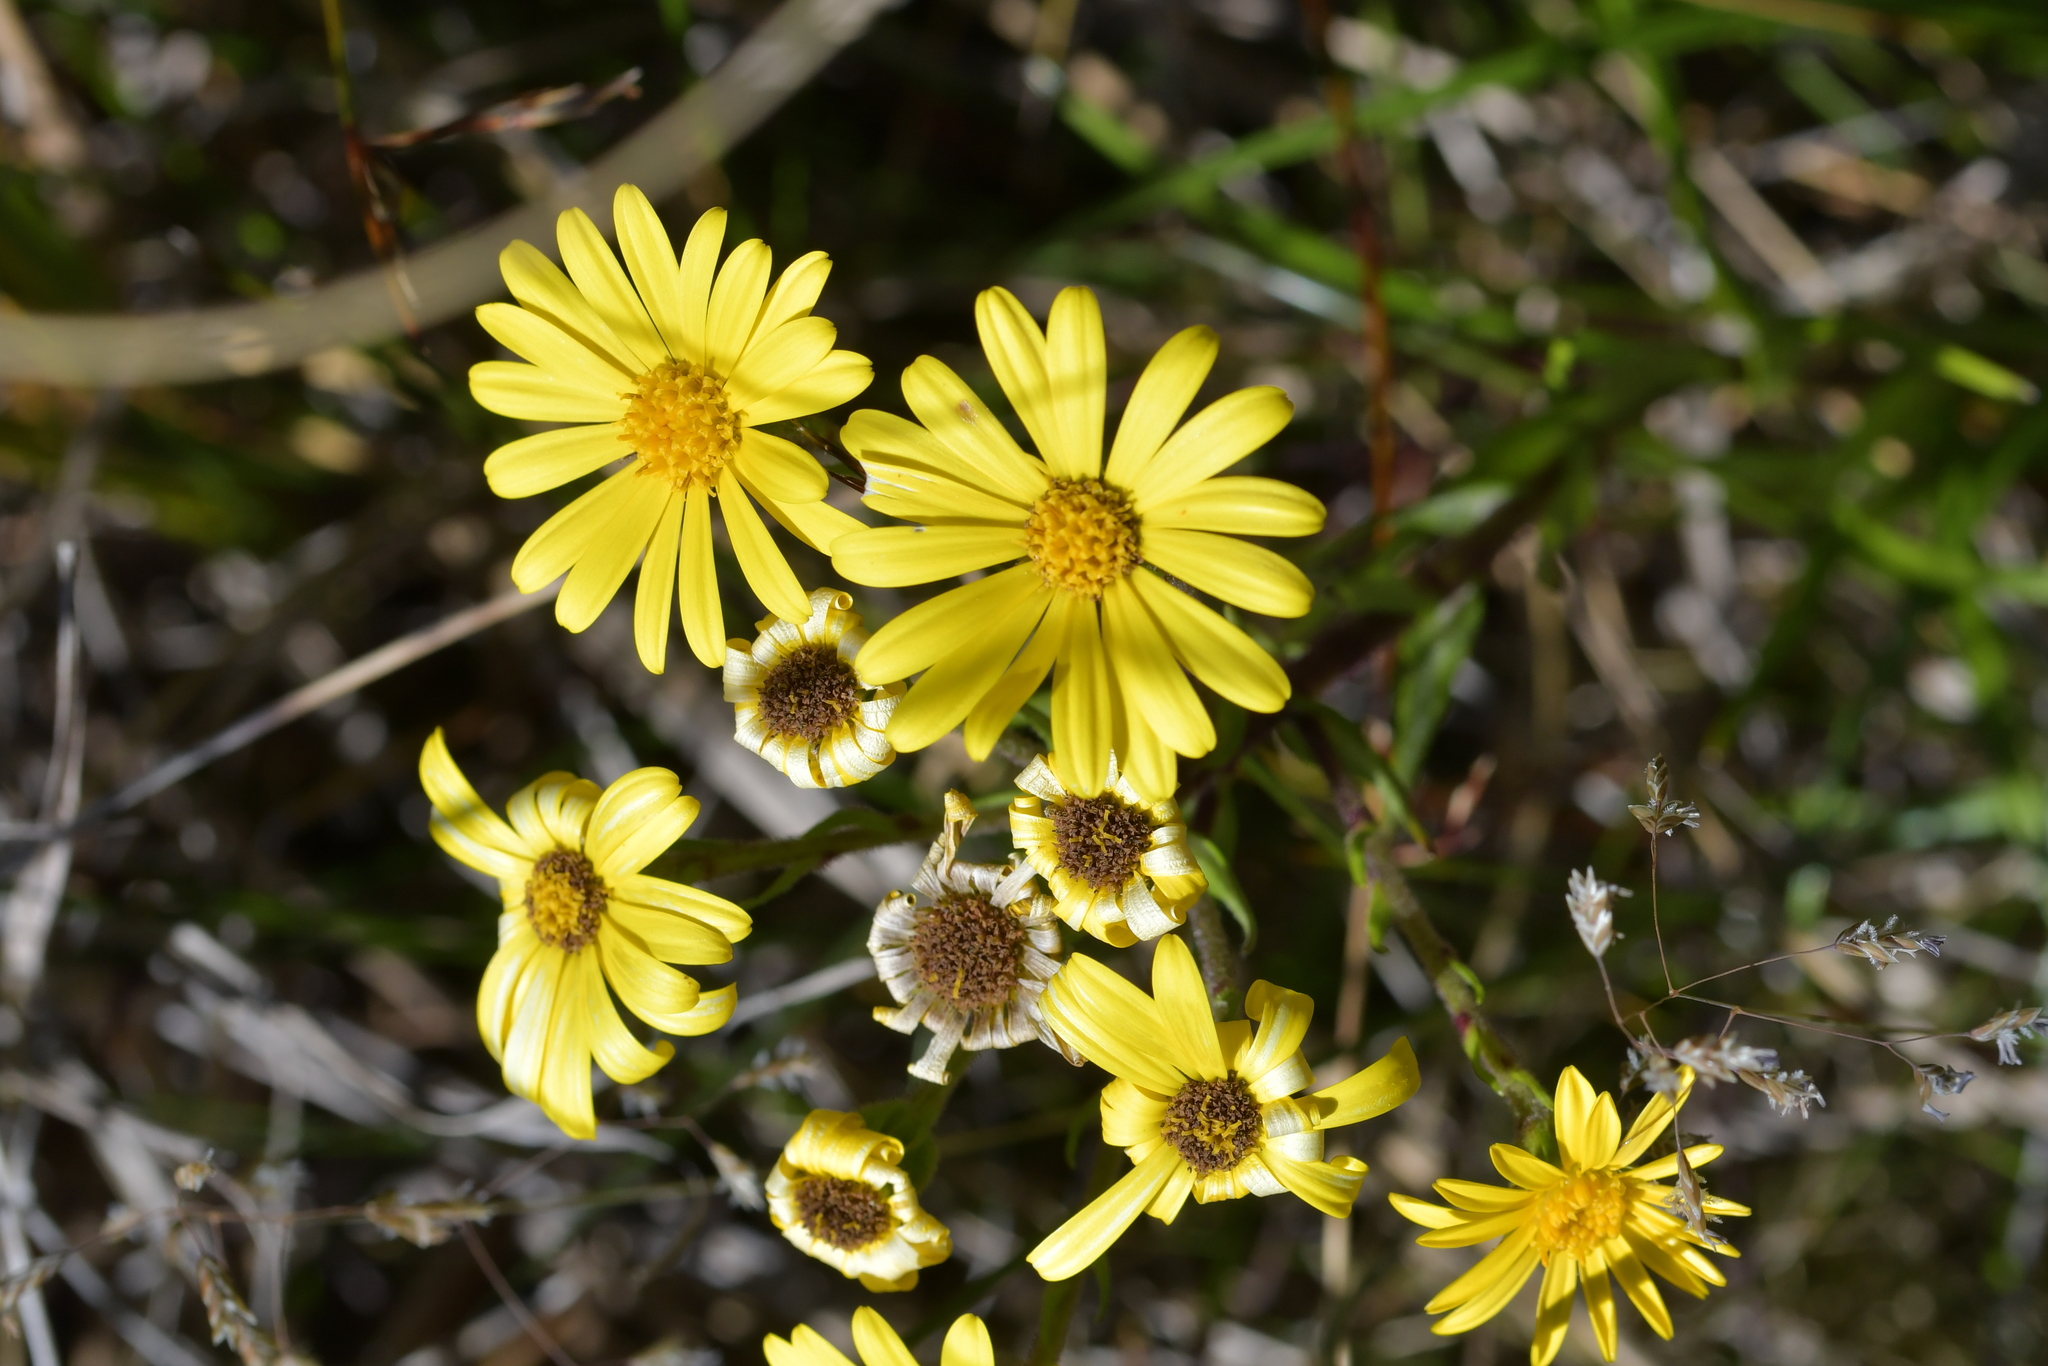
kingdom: Plantae
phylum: Tracheophyta
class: Magnoliopsida
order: Asterales
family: Asteraceae
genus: Dolichoglottis
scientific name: Dolichoglottis lyallii
